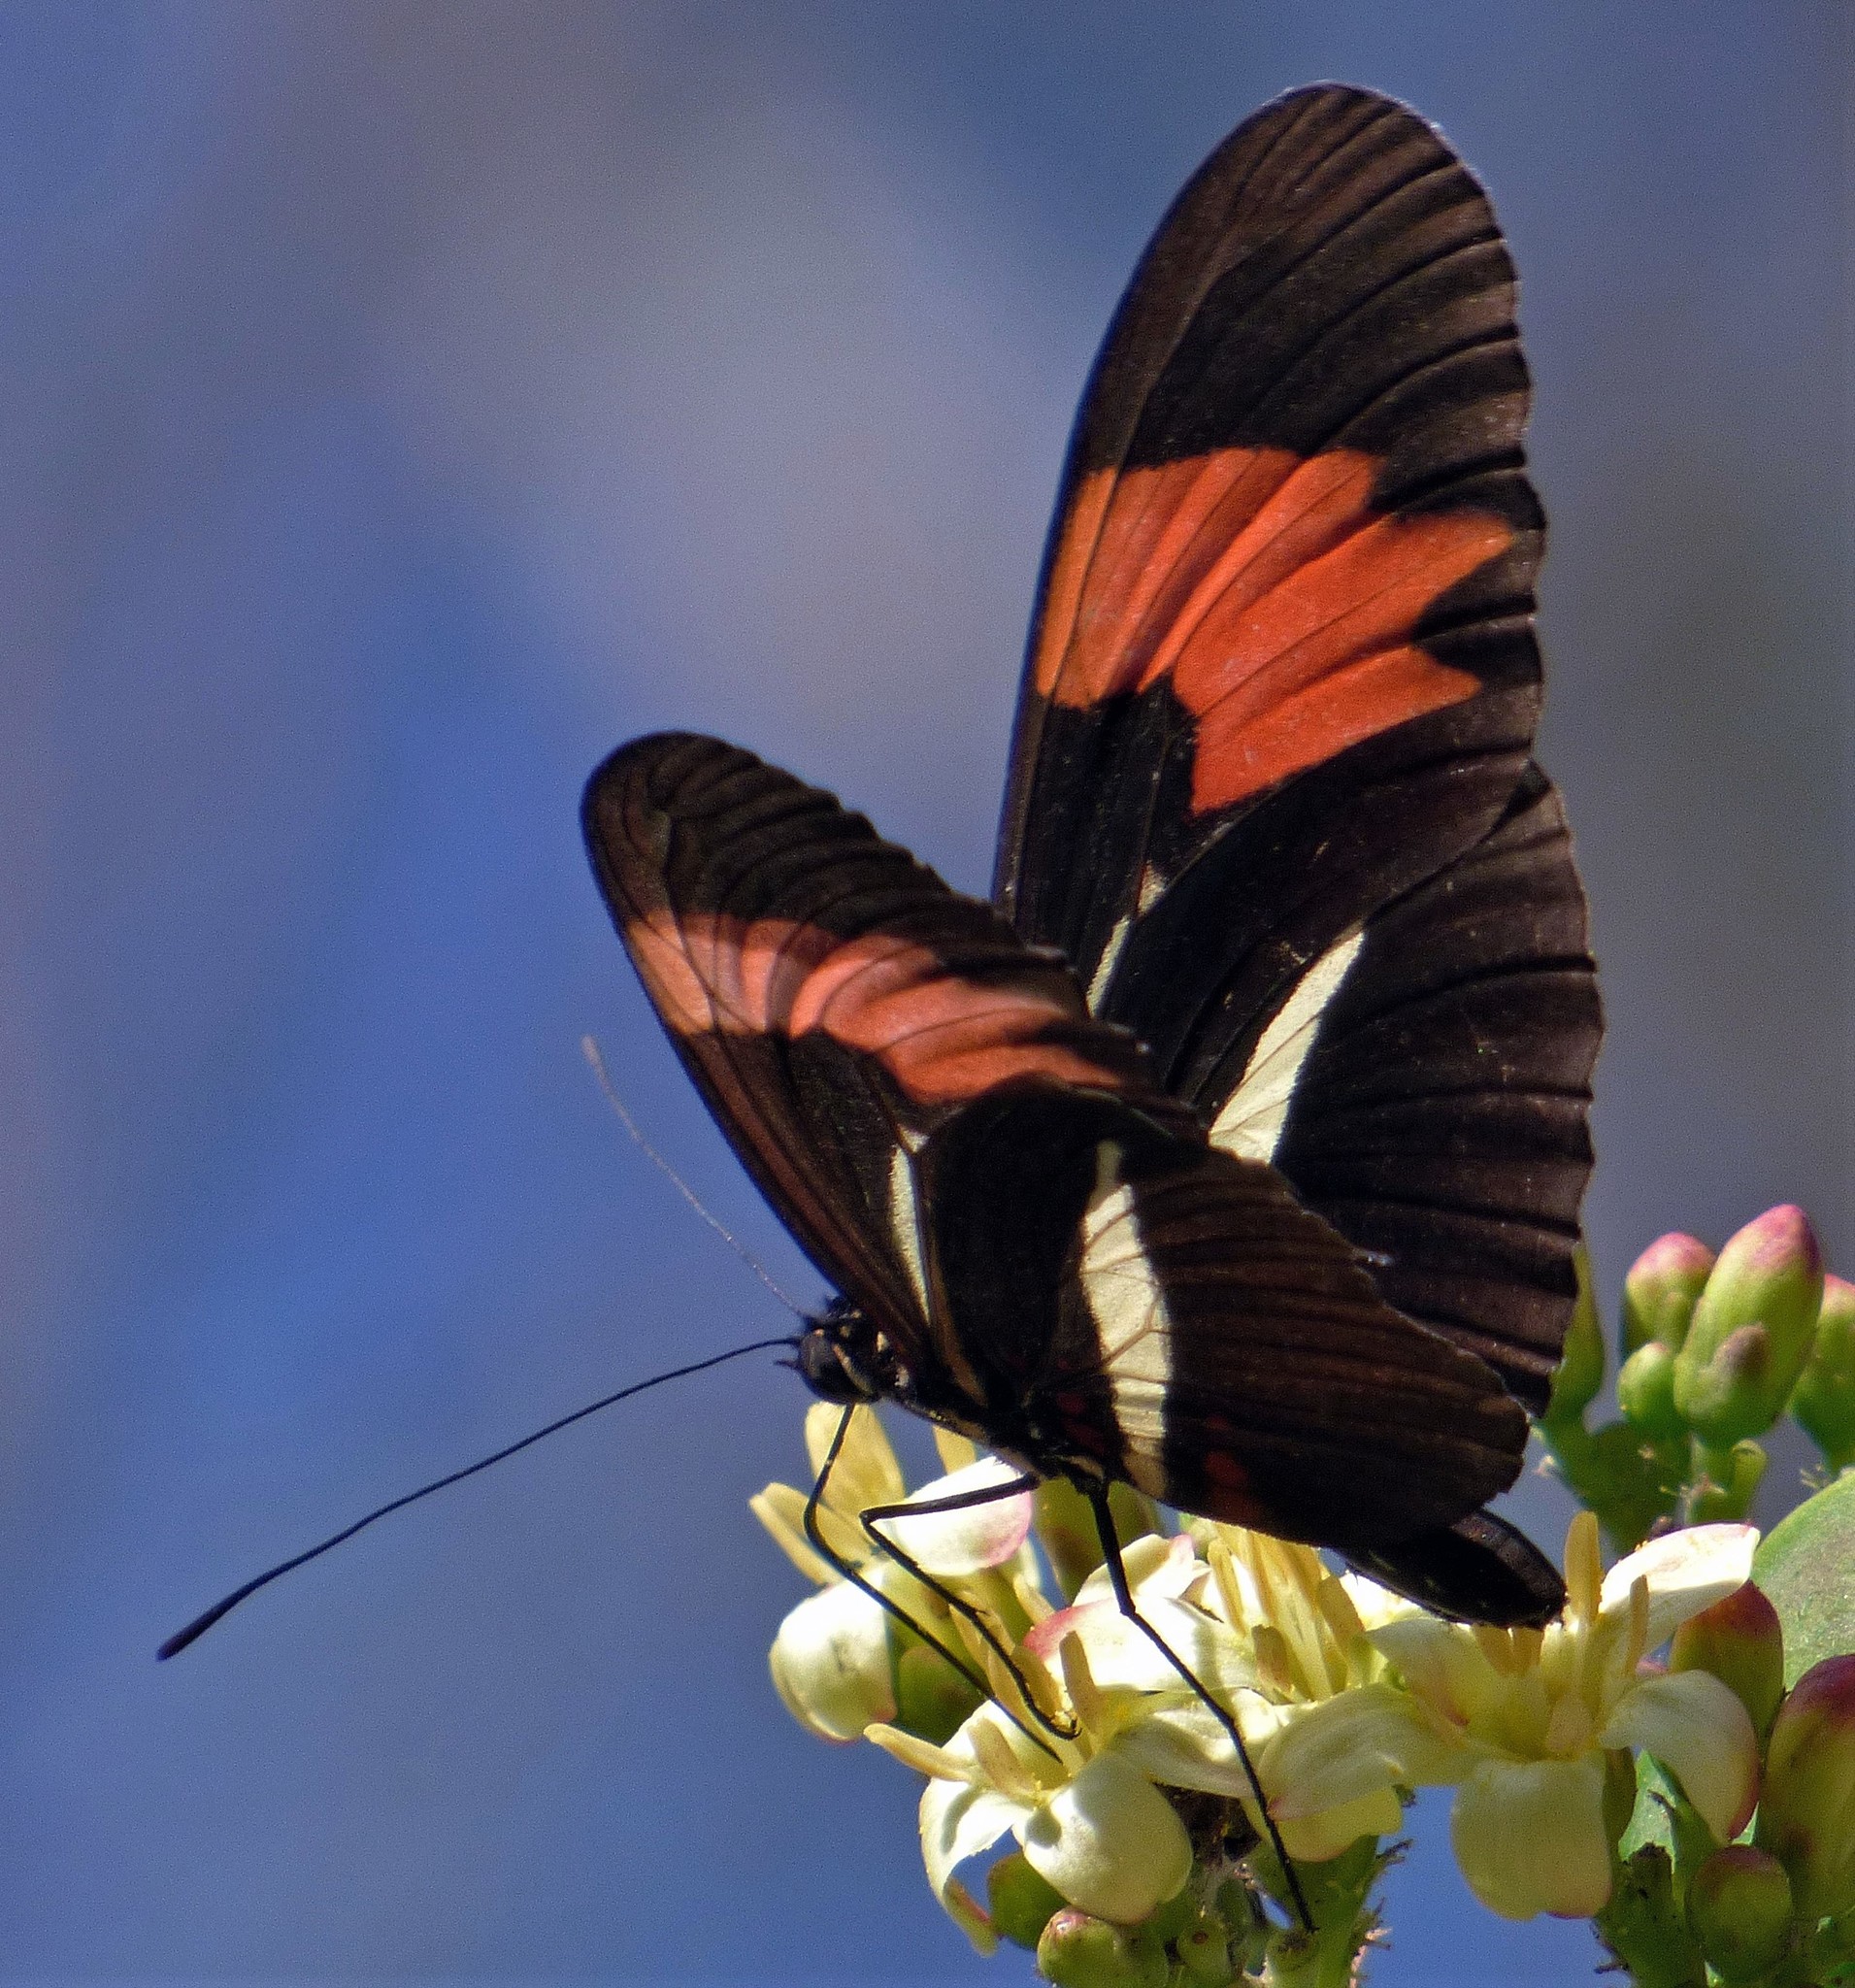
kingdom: Animalia
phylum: Arthropoda
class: Insecta
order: Lepidoptera
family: Nymphalidae
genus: Heliconius
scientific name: Heliconius erato
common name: Common patch longwing
